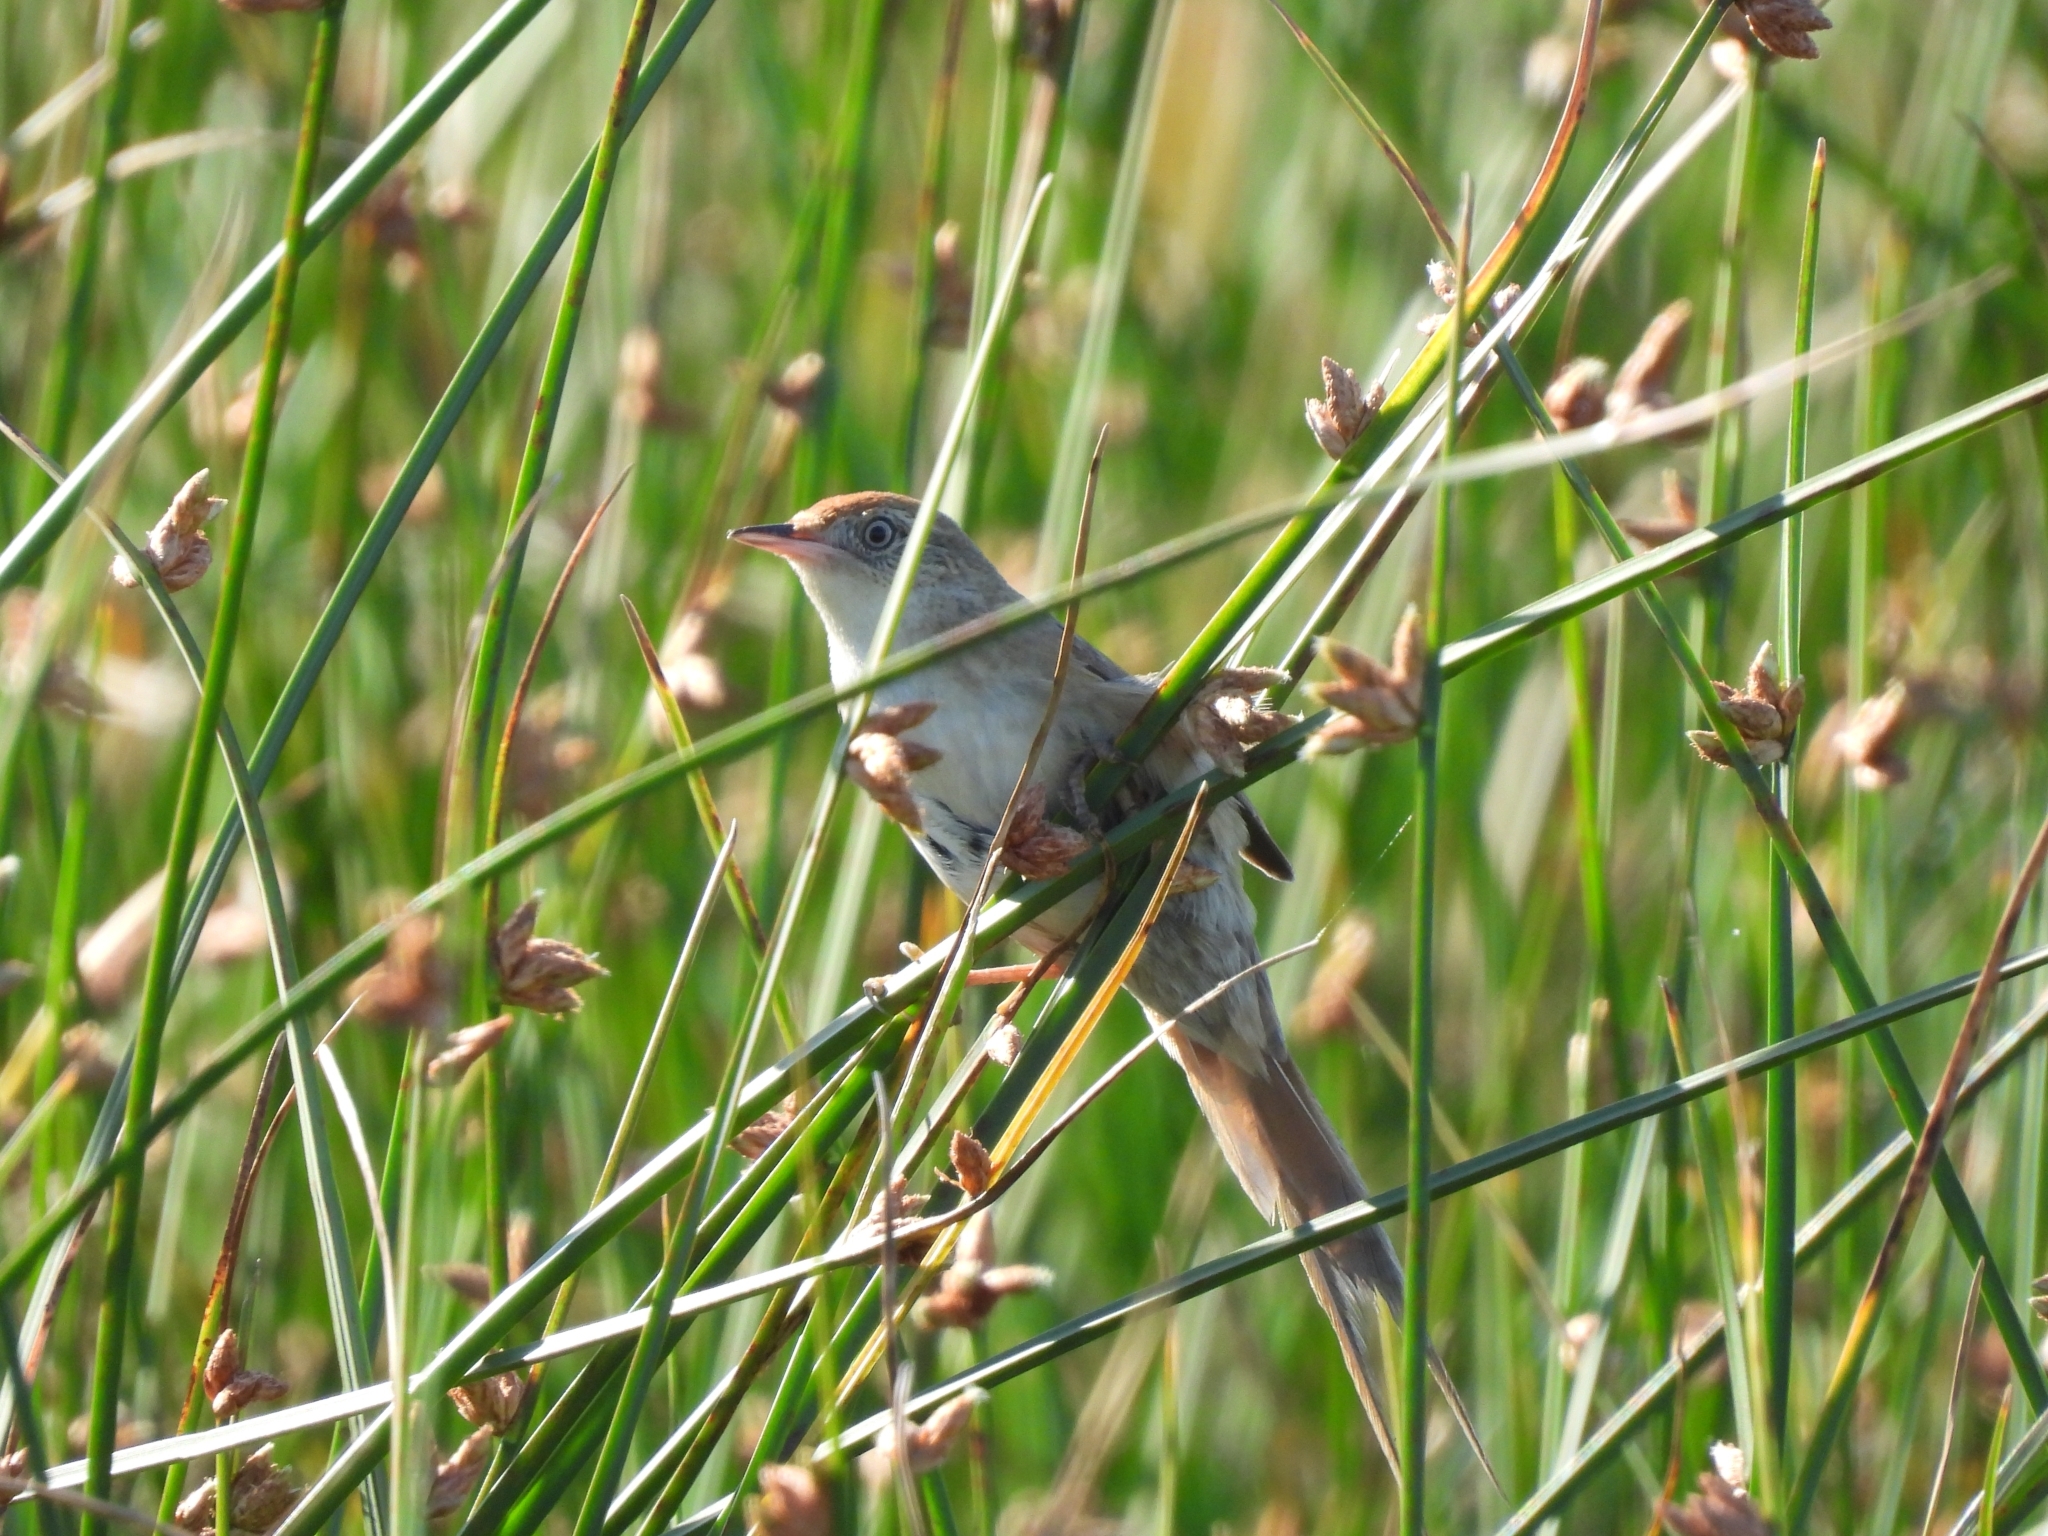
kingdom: Animalia
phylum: Chordata
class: Aves
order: Passeriformes
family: Furnariidae
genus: Spartonoica
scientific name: Spartonoica maluroides
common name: Bay-capped wren-spinetail
